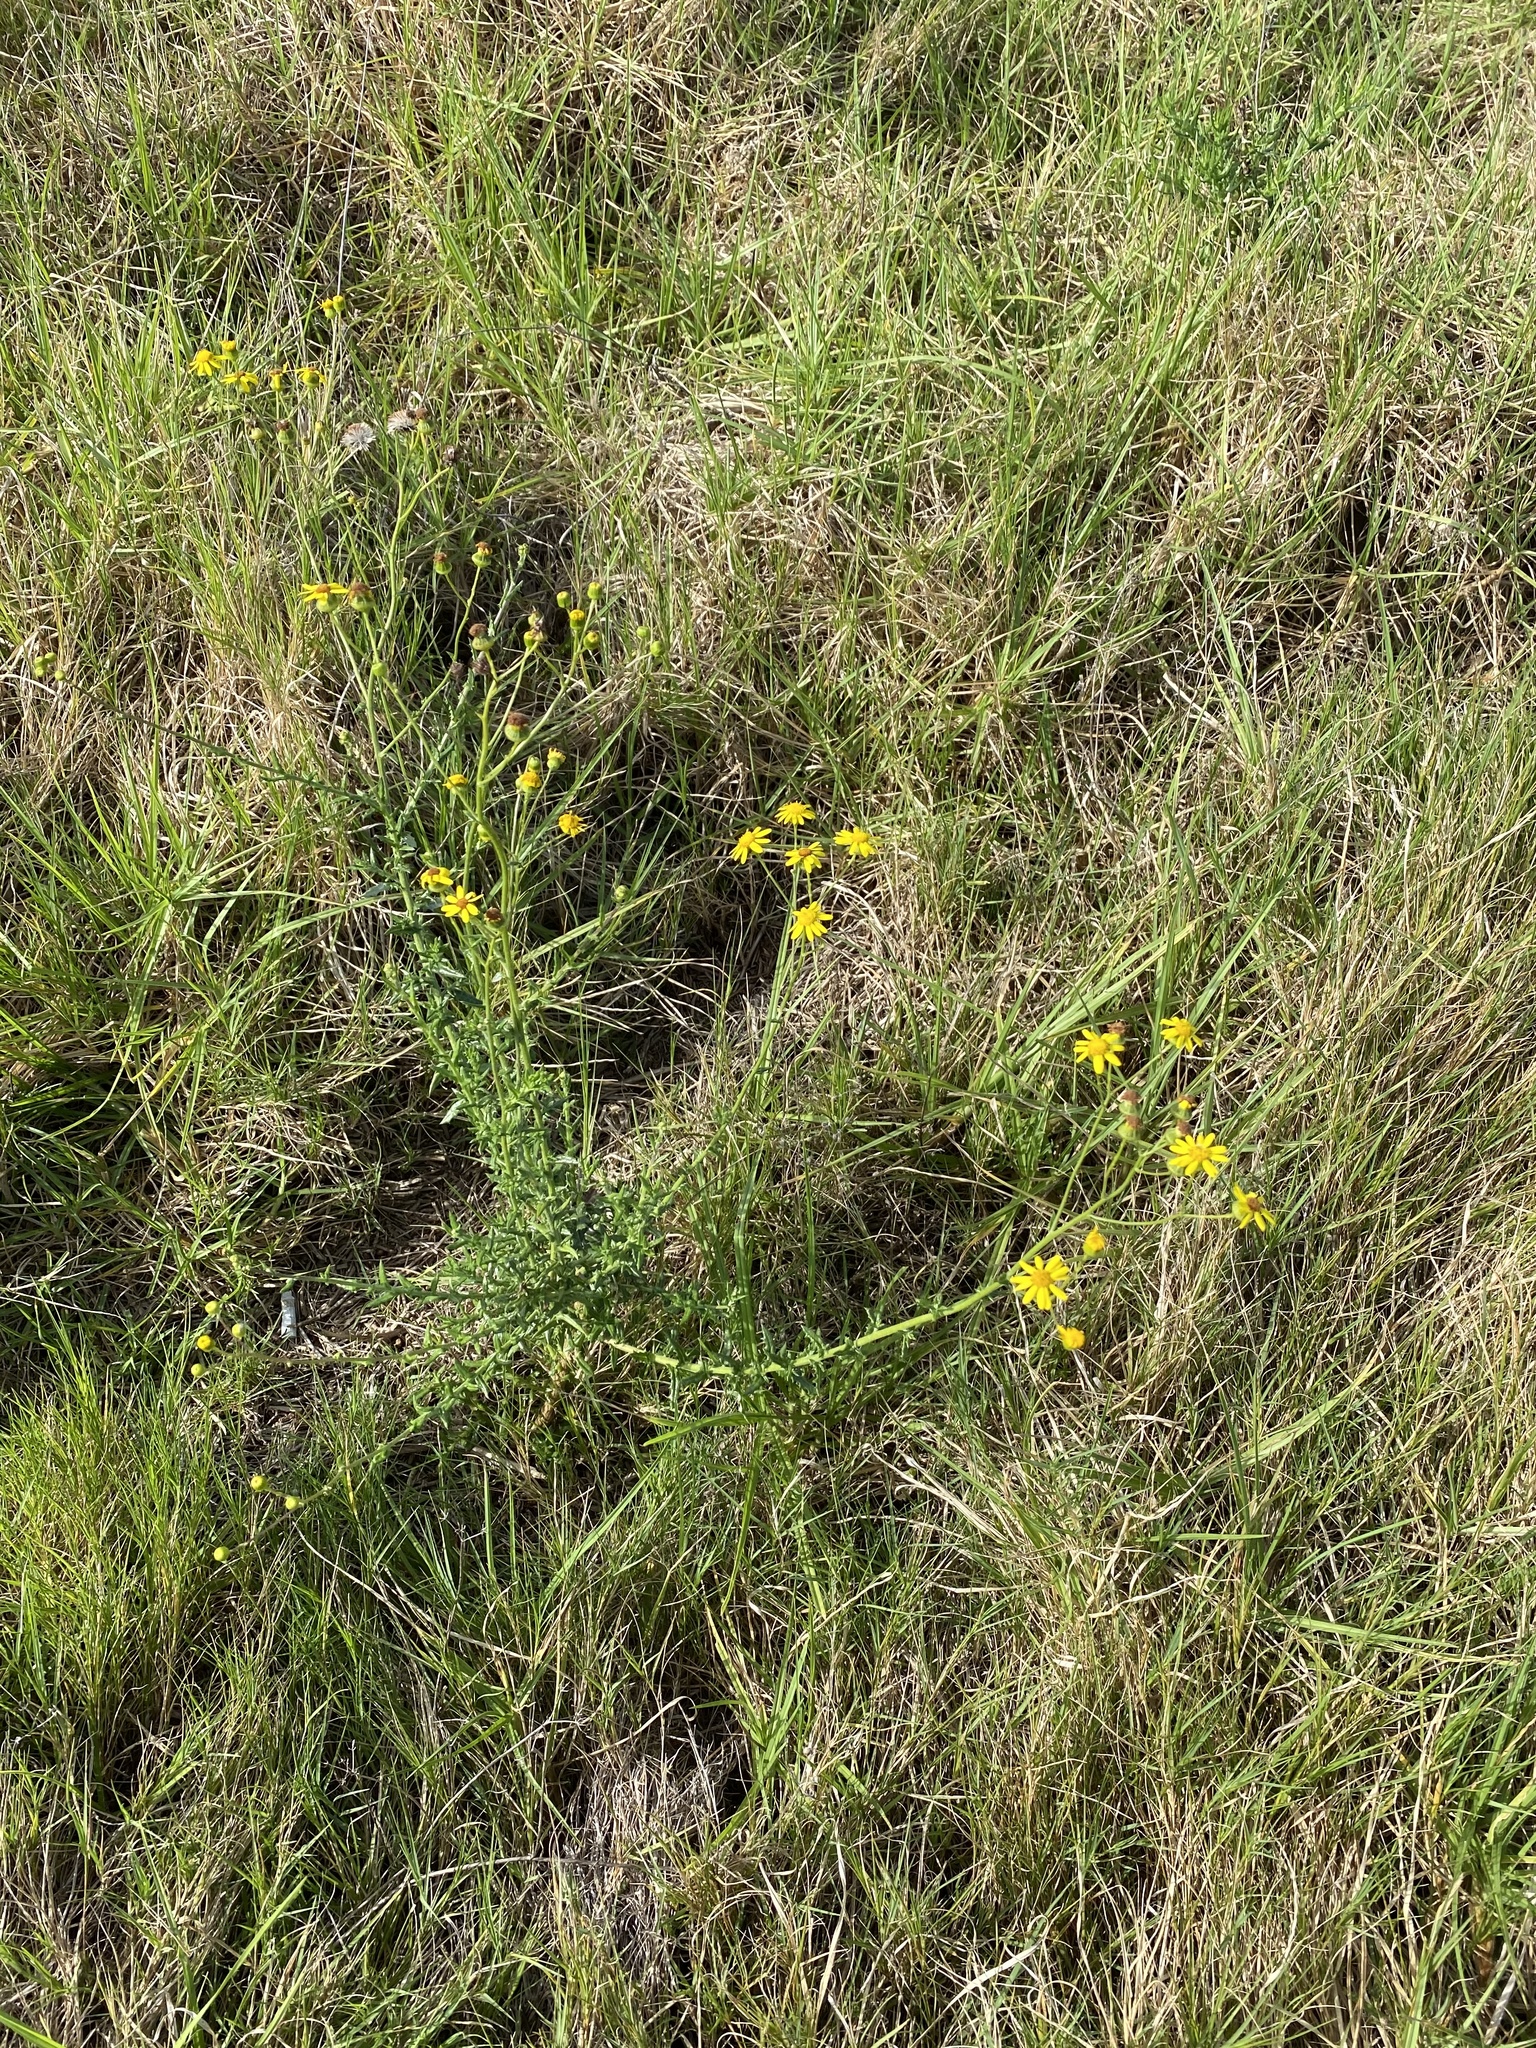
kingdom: Plantae
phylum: Tracheophyta
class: Magnoliopsida
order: Asterales
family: Asteraceae
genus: Senecio
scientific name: Senecio ilicifolius
